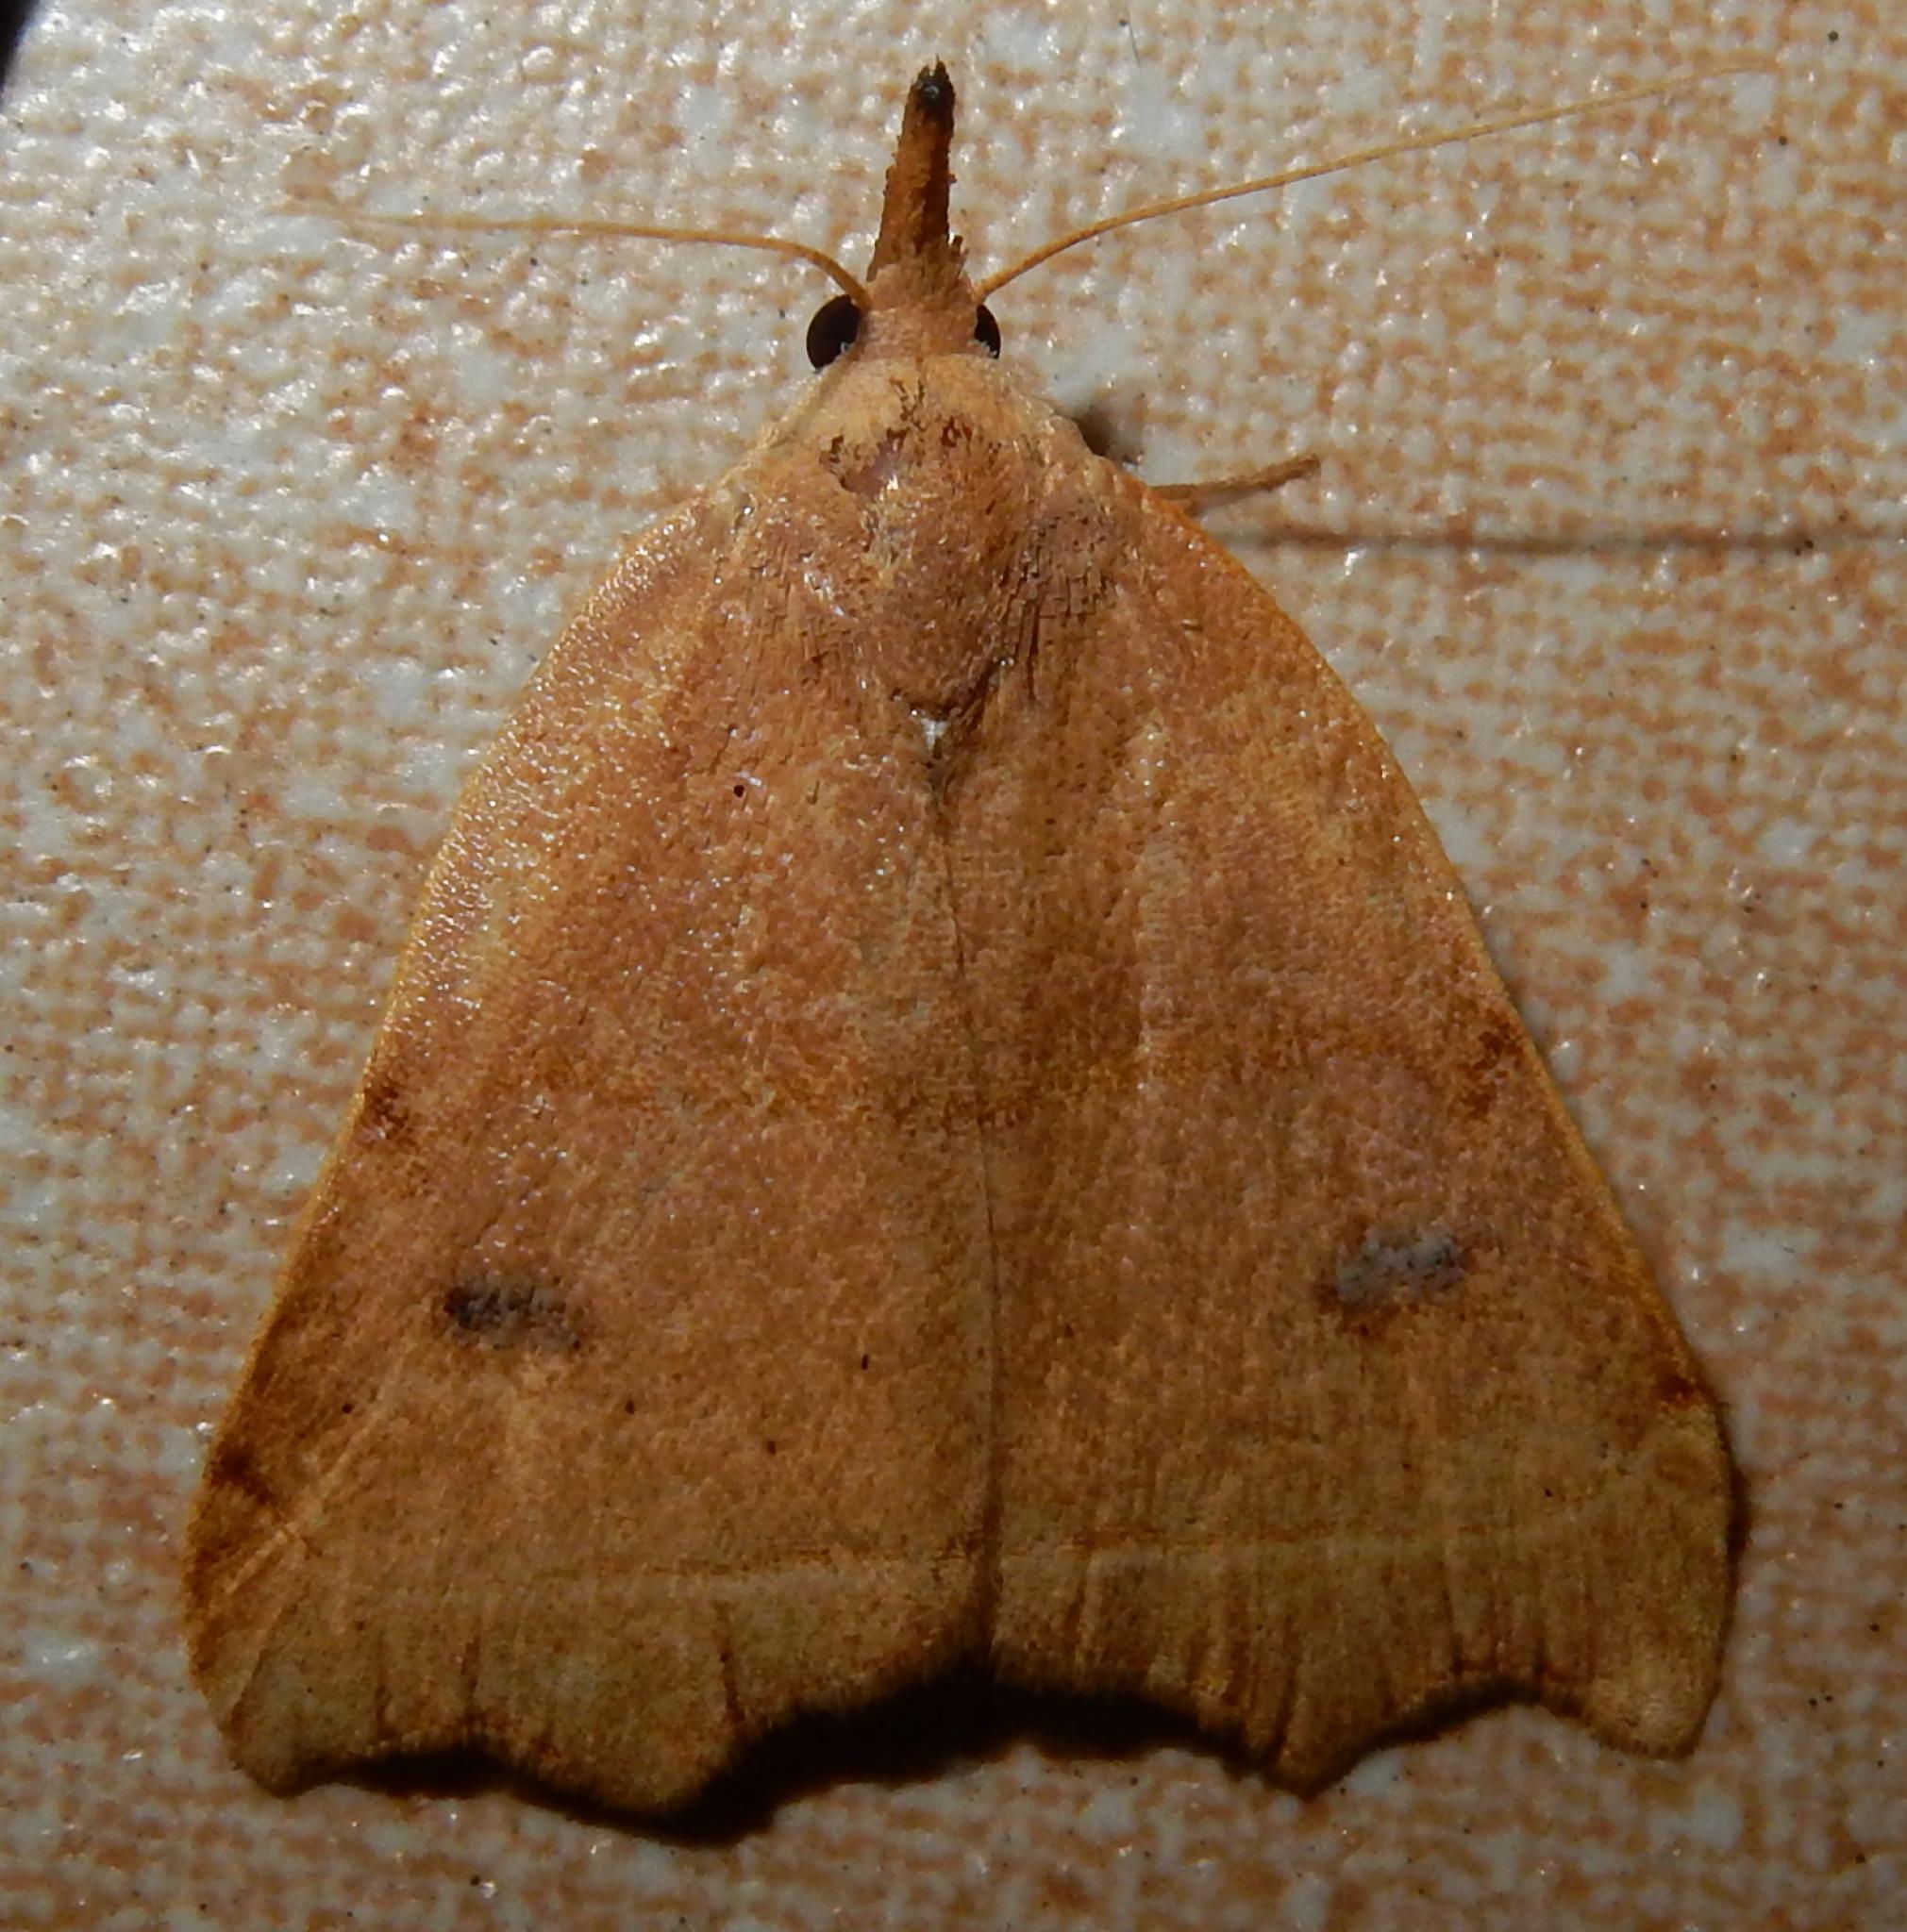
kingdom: Animalia
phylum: Arthropoda
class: Insecta
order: Lepidoptera
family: Erebidae
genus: Hondryches
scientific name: Hondryches phalaeniformis
